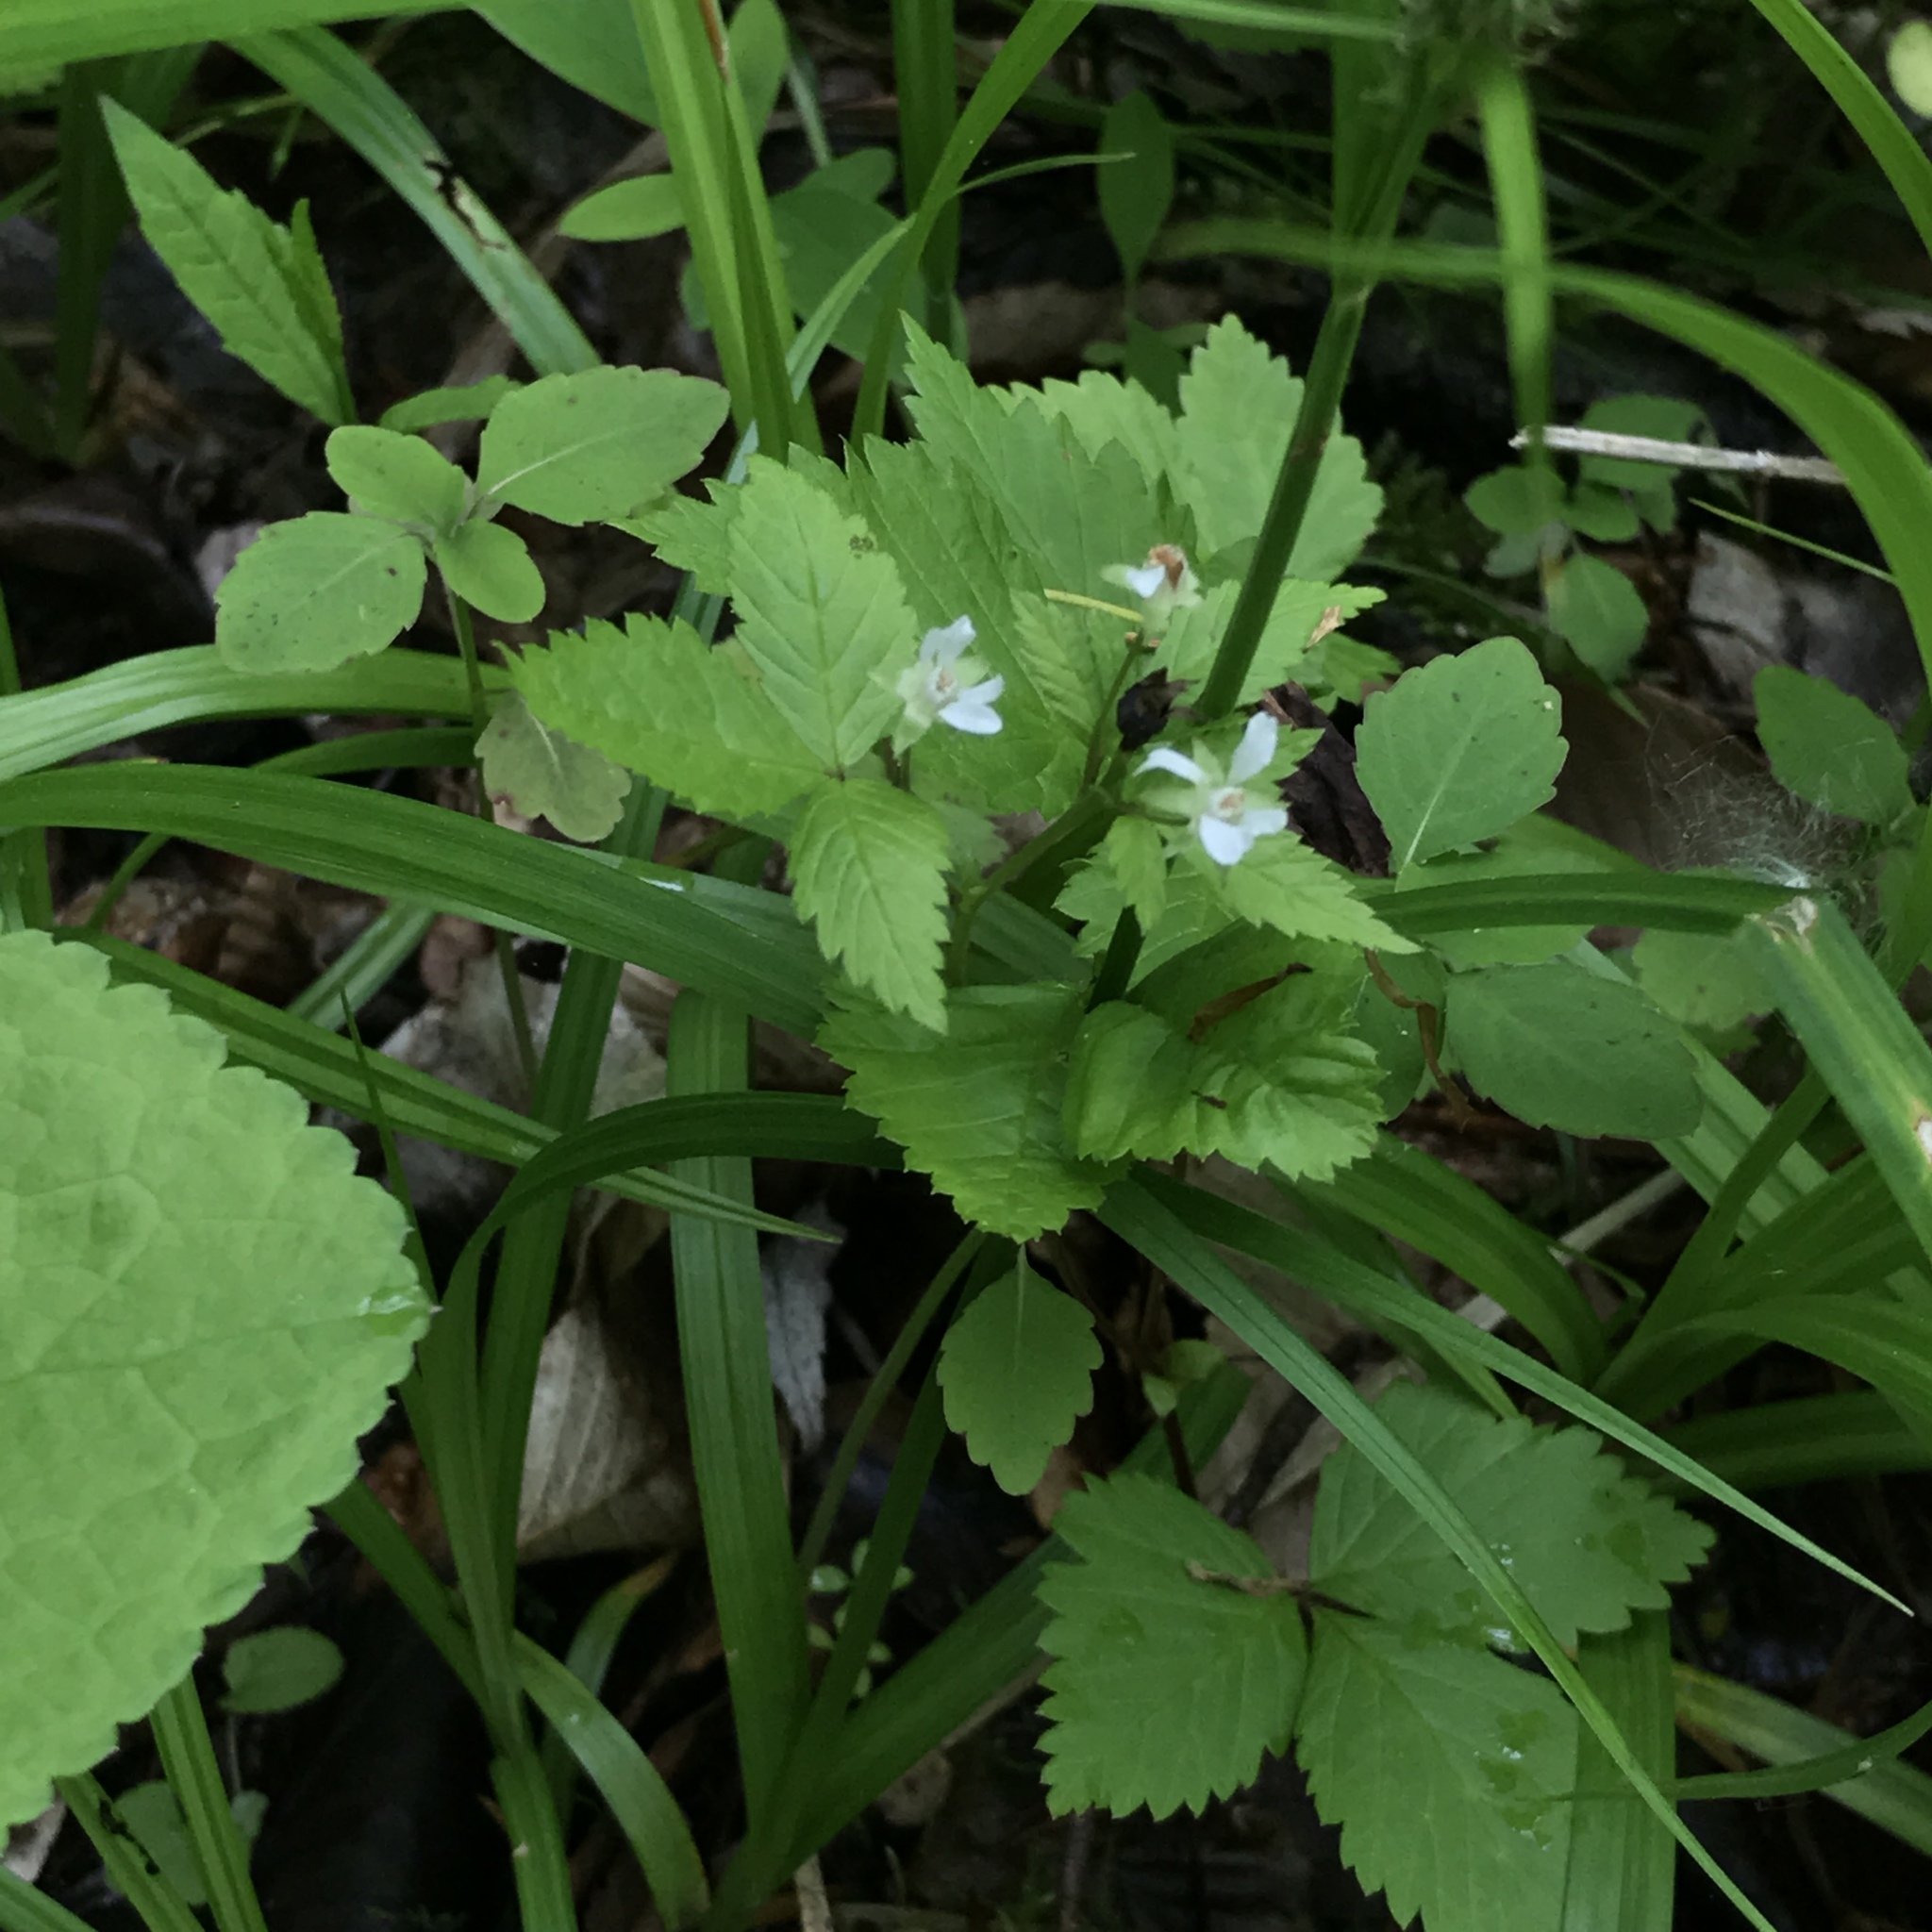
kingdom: Plantae
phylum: Tracheophyta
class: Magnoliopsida
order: Rosales
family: Rosaceae
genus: Rubus
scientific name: Rubus pubescens
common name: Dwarf raspberry
